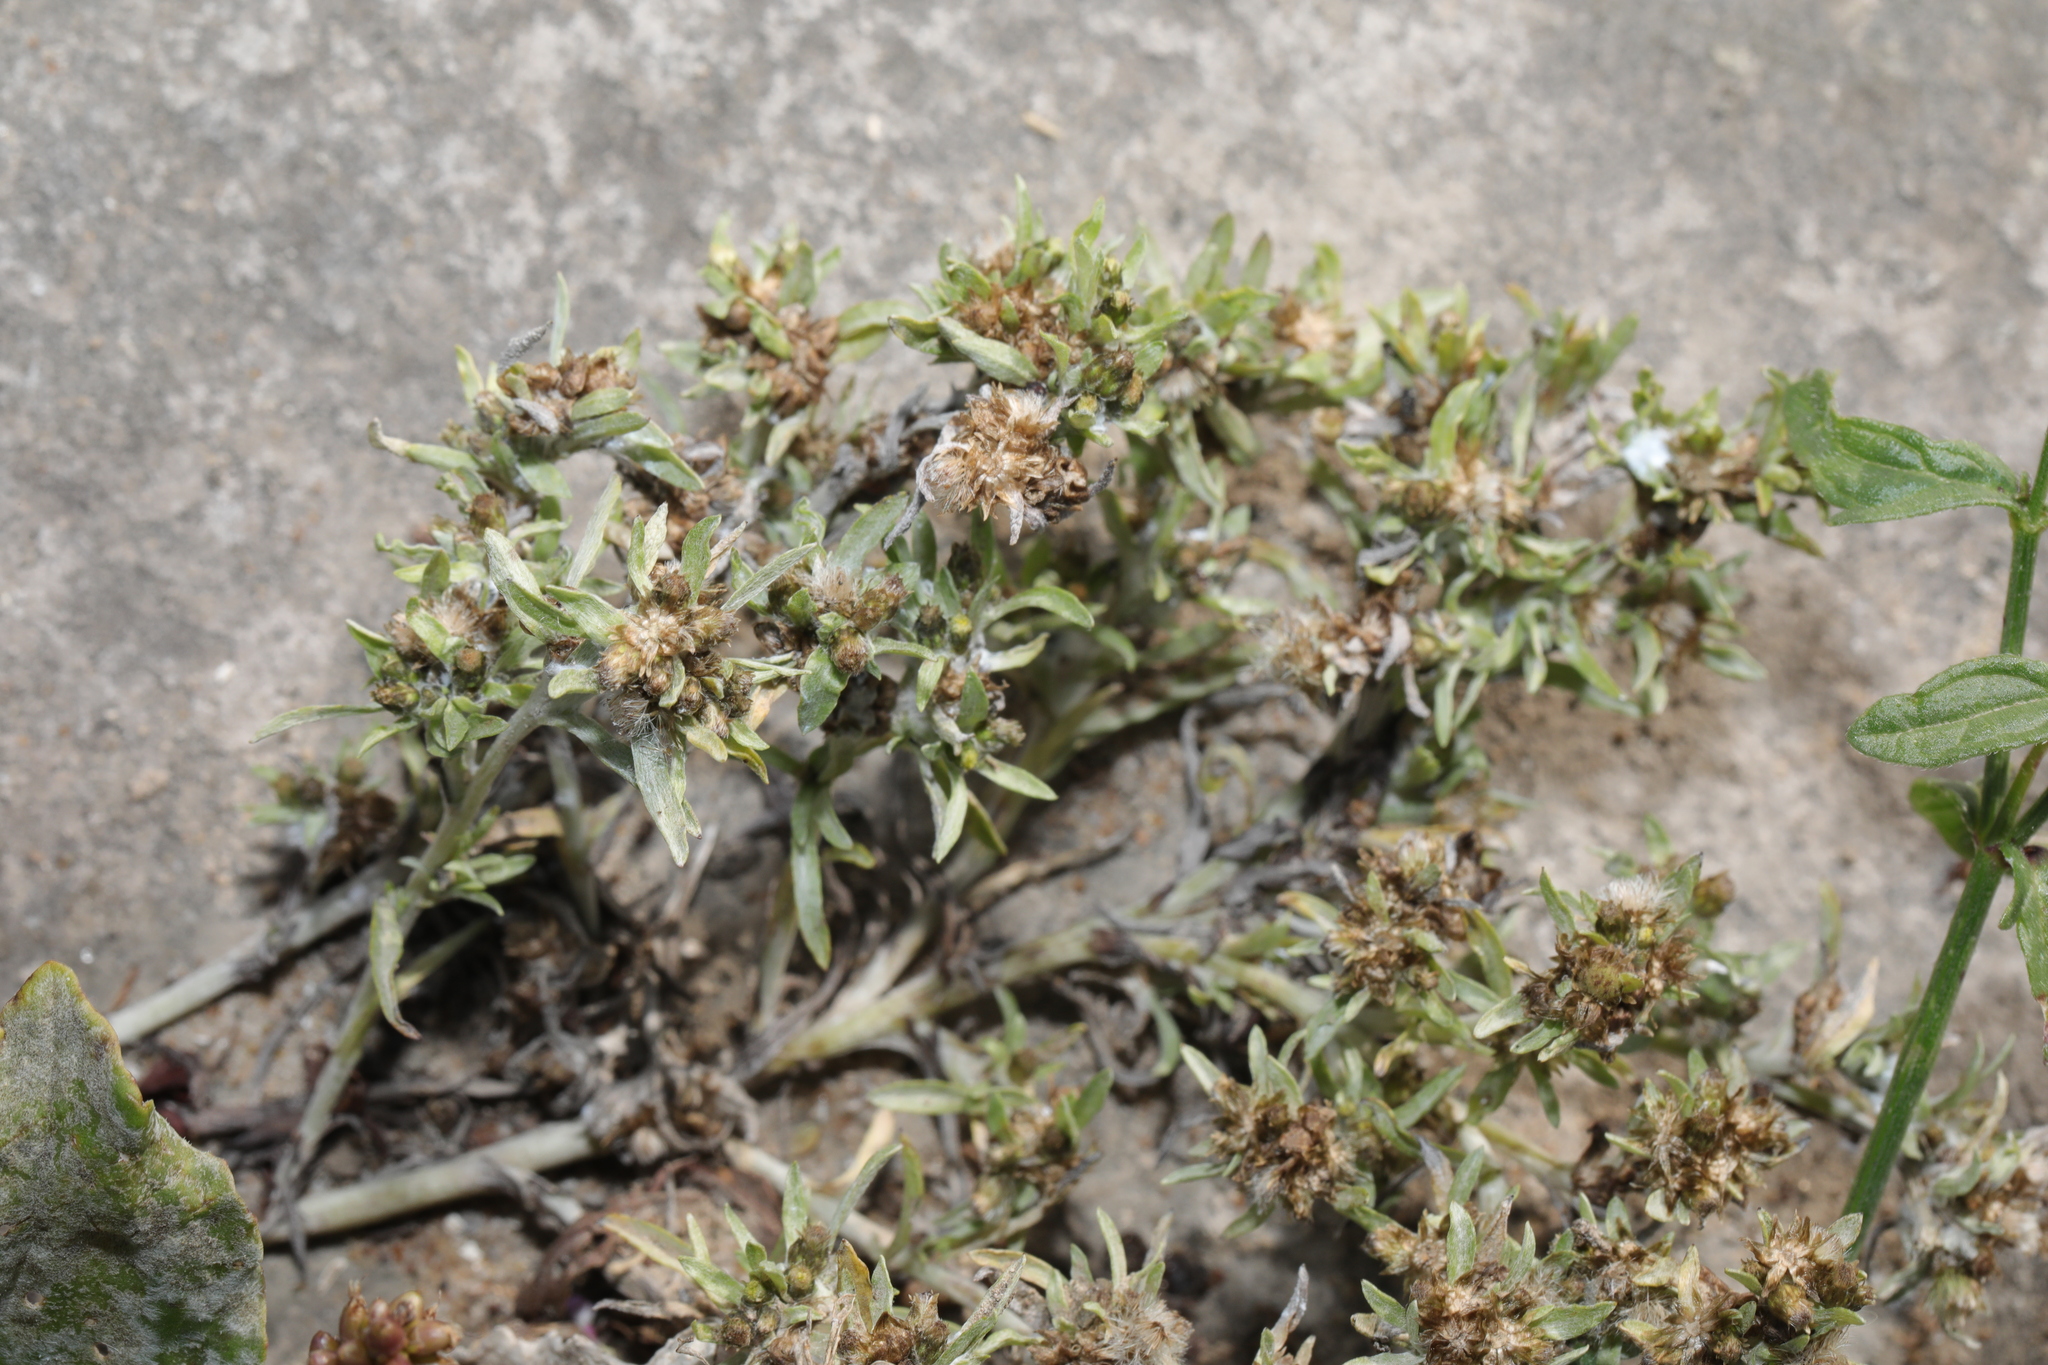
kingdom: Plantae
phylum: Tracheophyta
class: Magnoliopsida
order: Asterales
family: Asteraceae
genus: Gnaphalium
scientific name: Gnaphalium uliginosum
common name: Marsh cudweed
